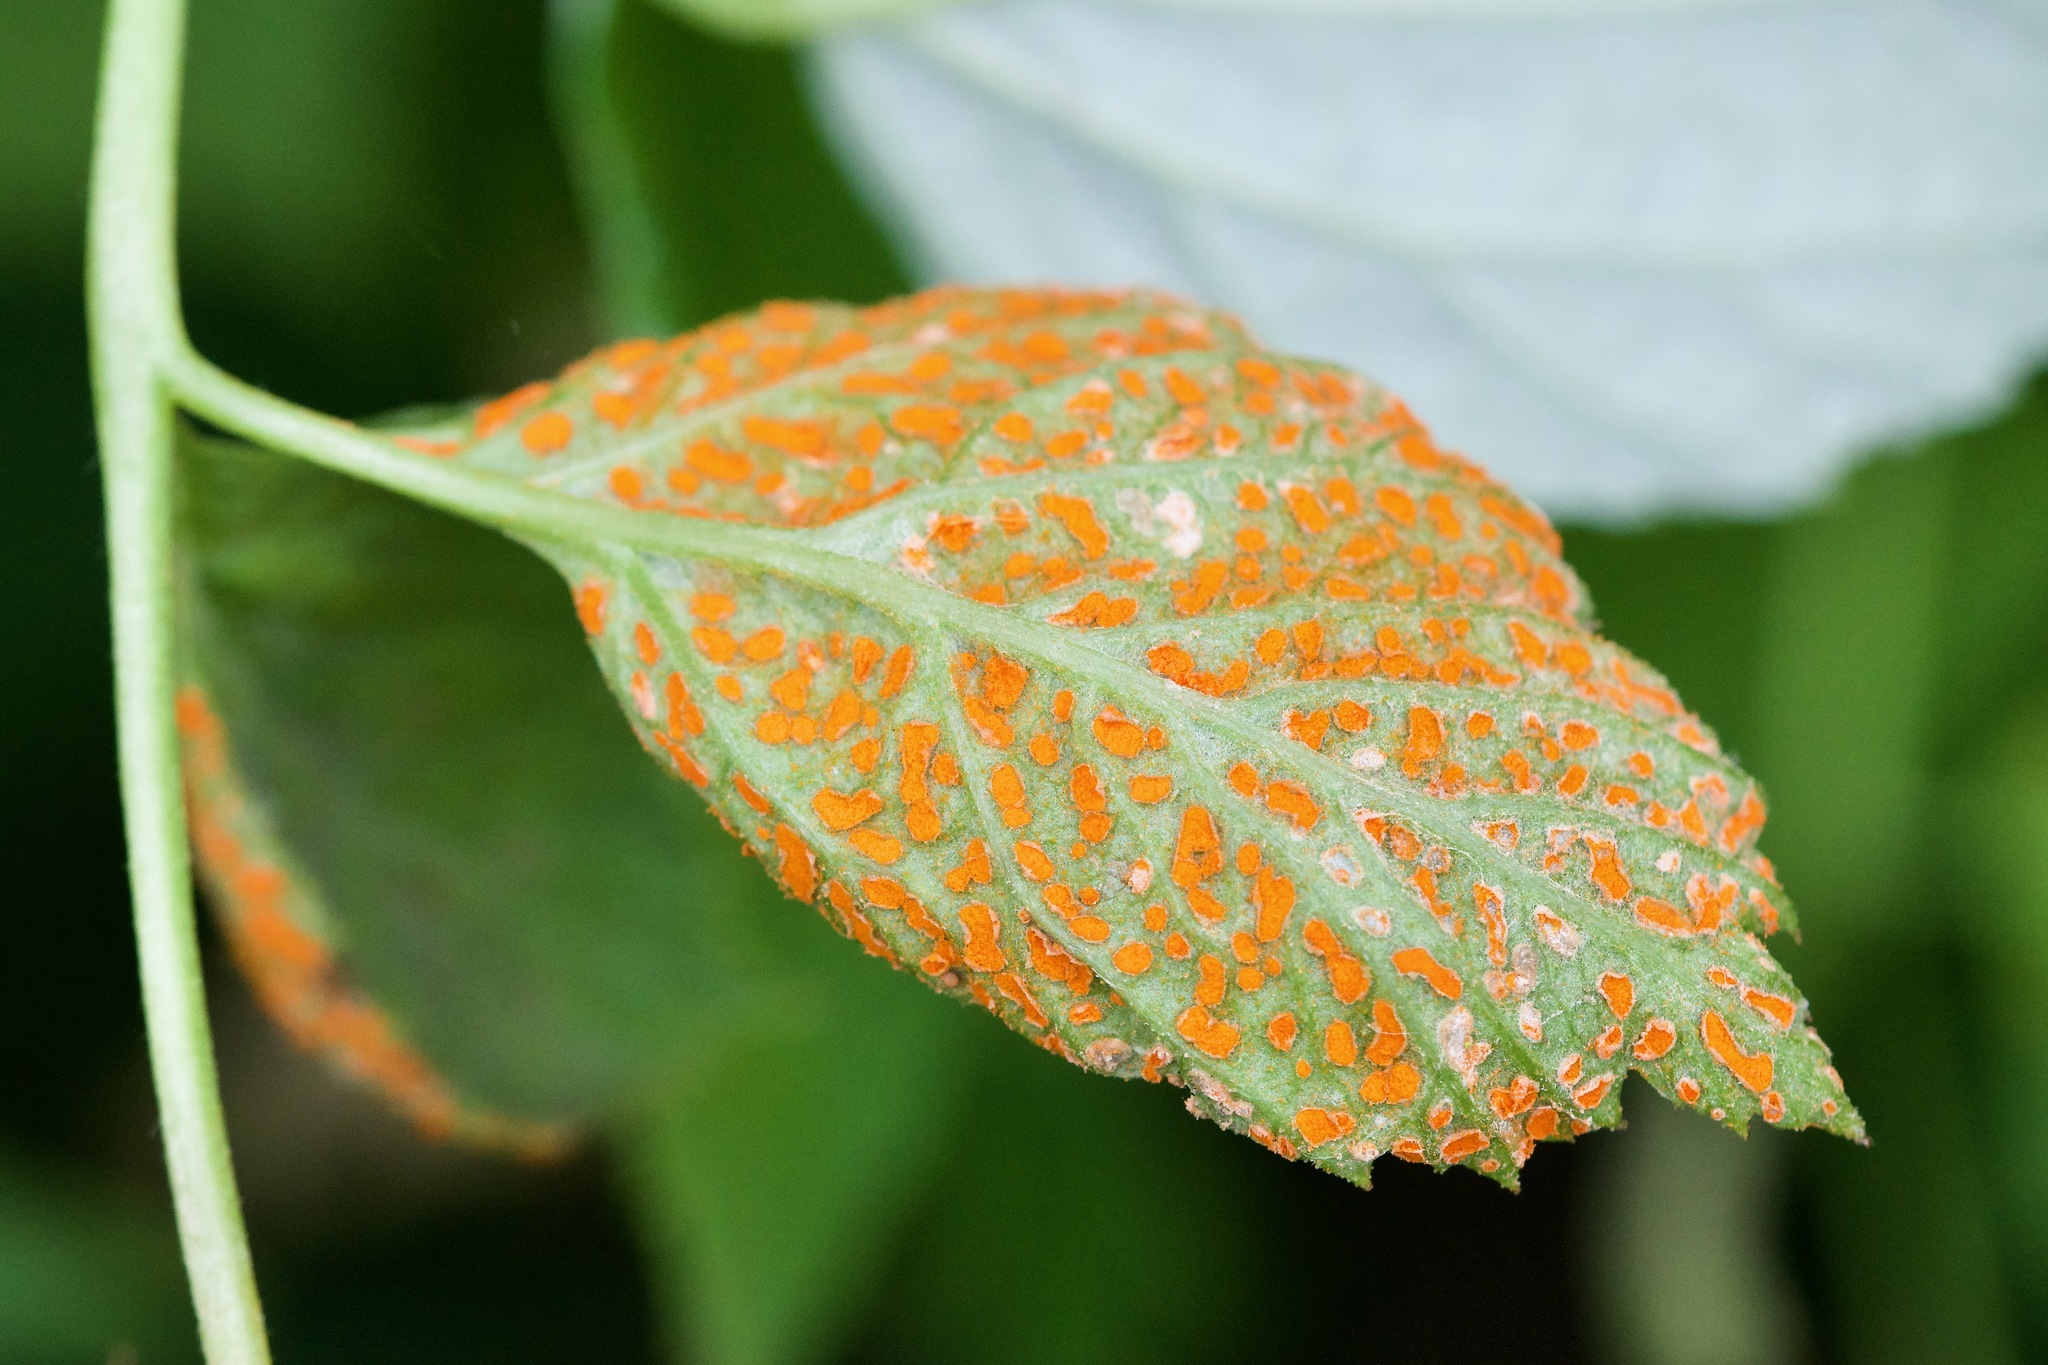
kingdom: Fungi
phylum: Basidiomycota
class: Pucciniomycetes
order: Pucciniales
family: Phragmidiaceae
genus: Arthuriomyces
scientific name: Arthuriomyces peckianus
